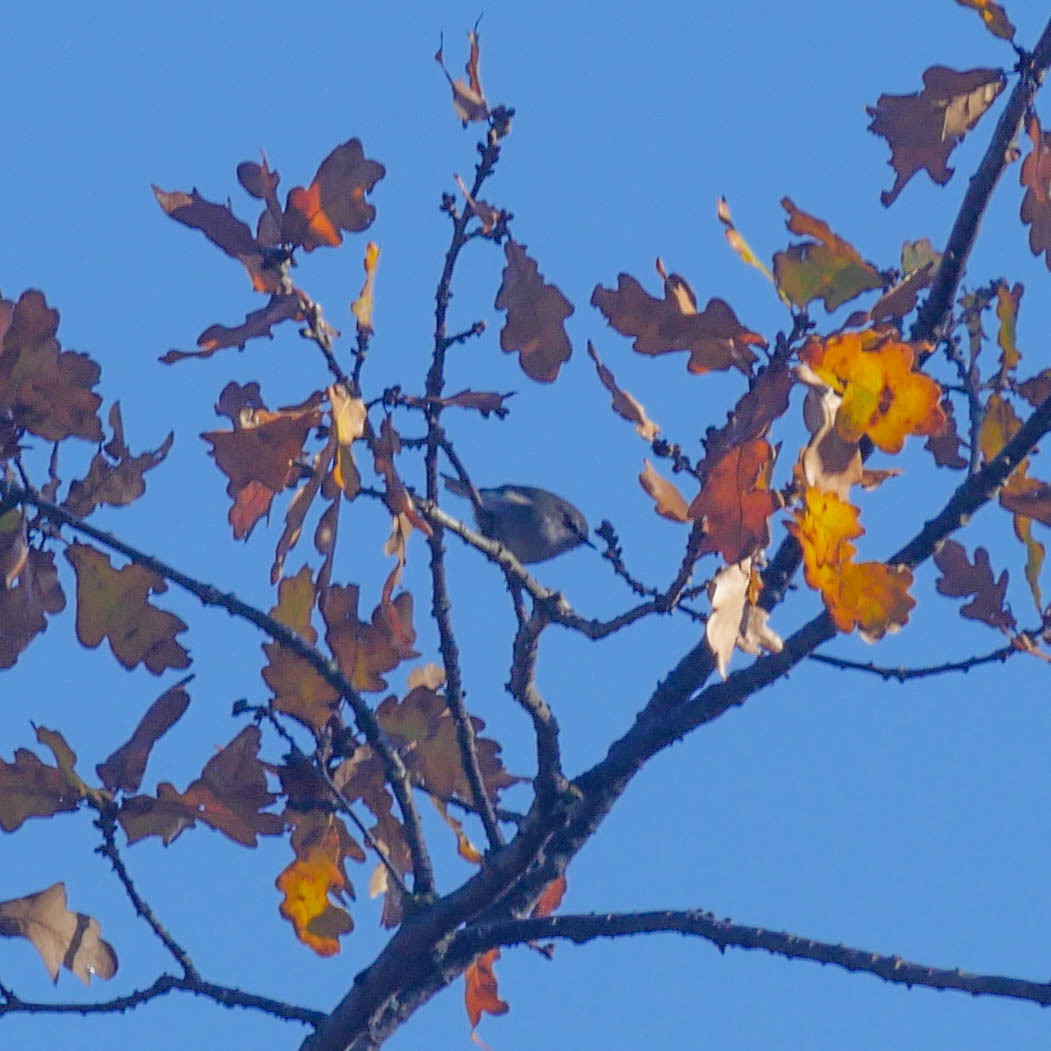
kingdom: Animalia
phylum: Chordata
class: Aves
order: Passeriformes
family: Acanthizidae
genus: Gerygone
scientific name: Gerygone igata
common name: Grey gerygone
